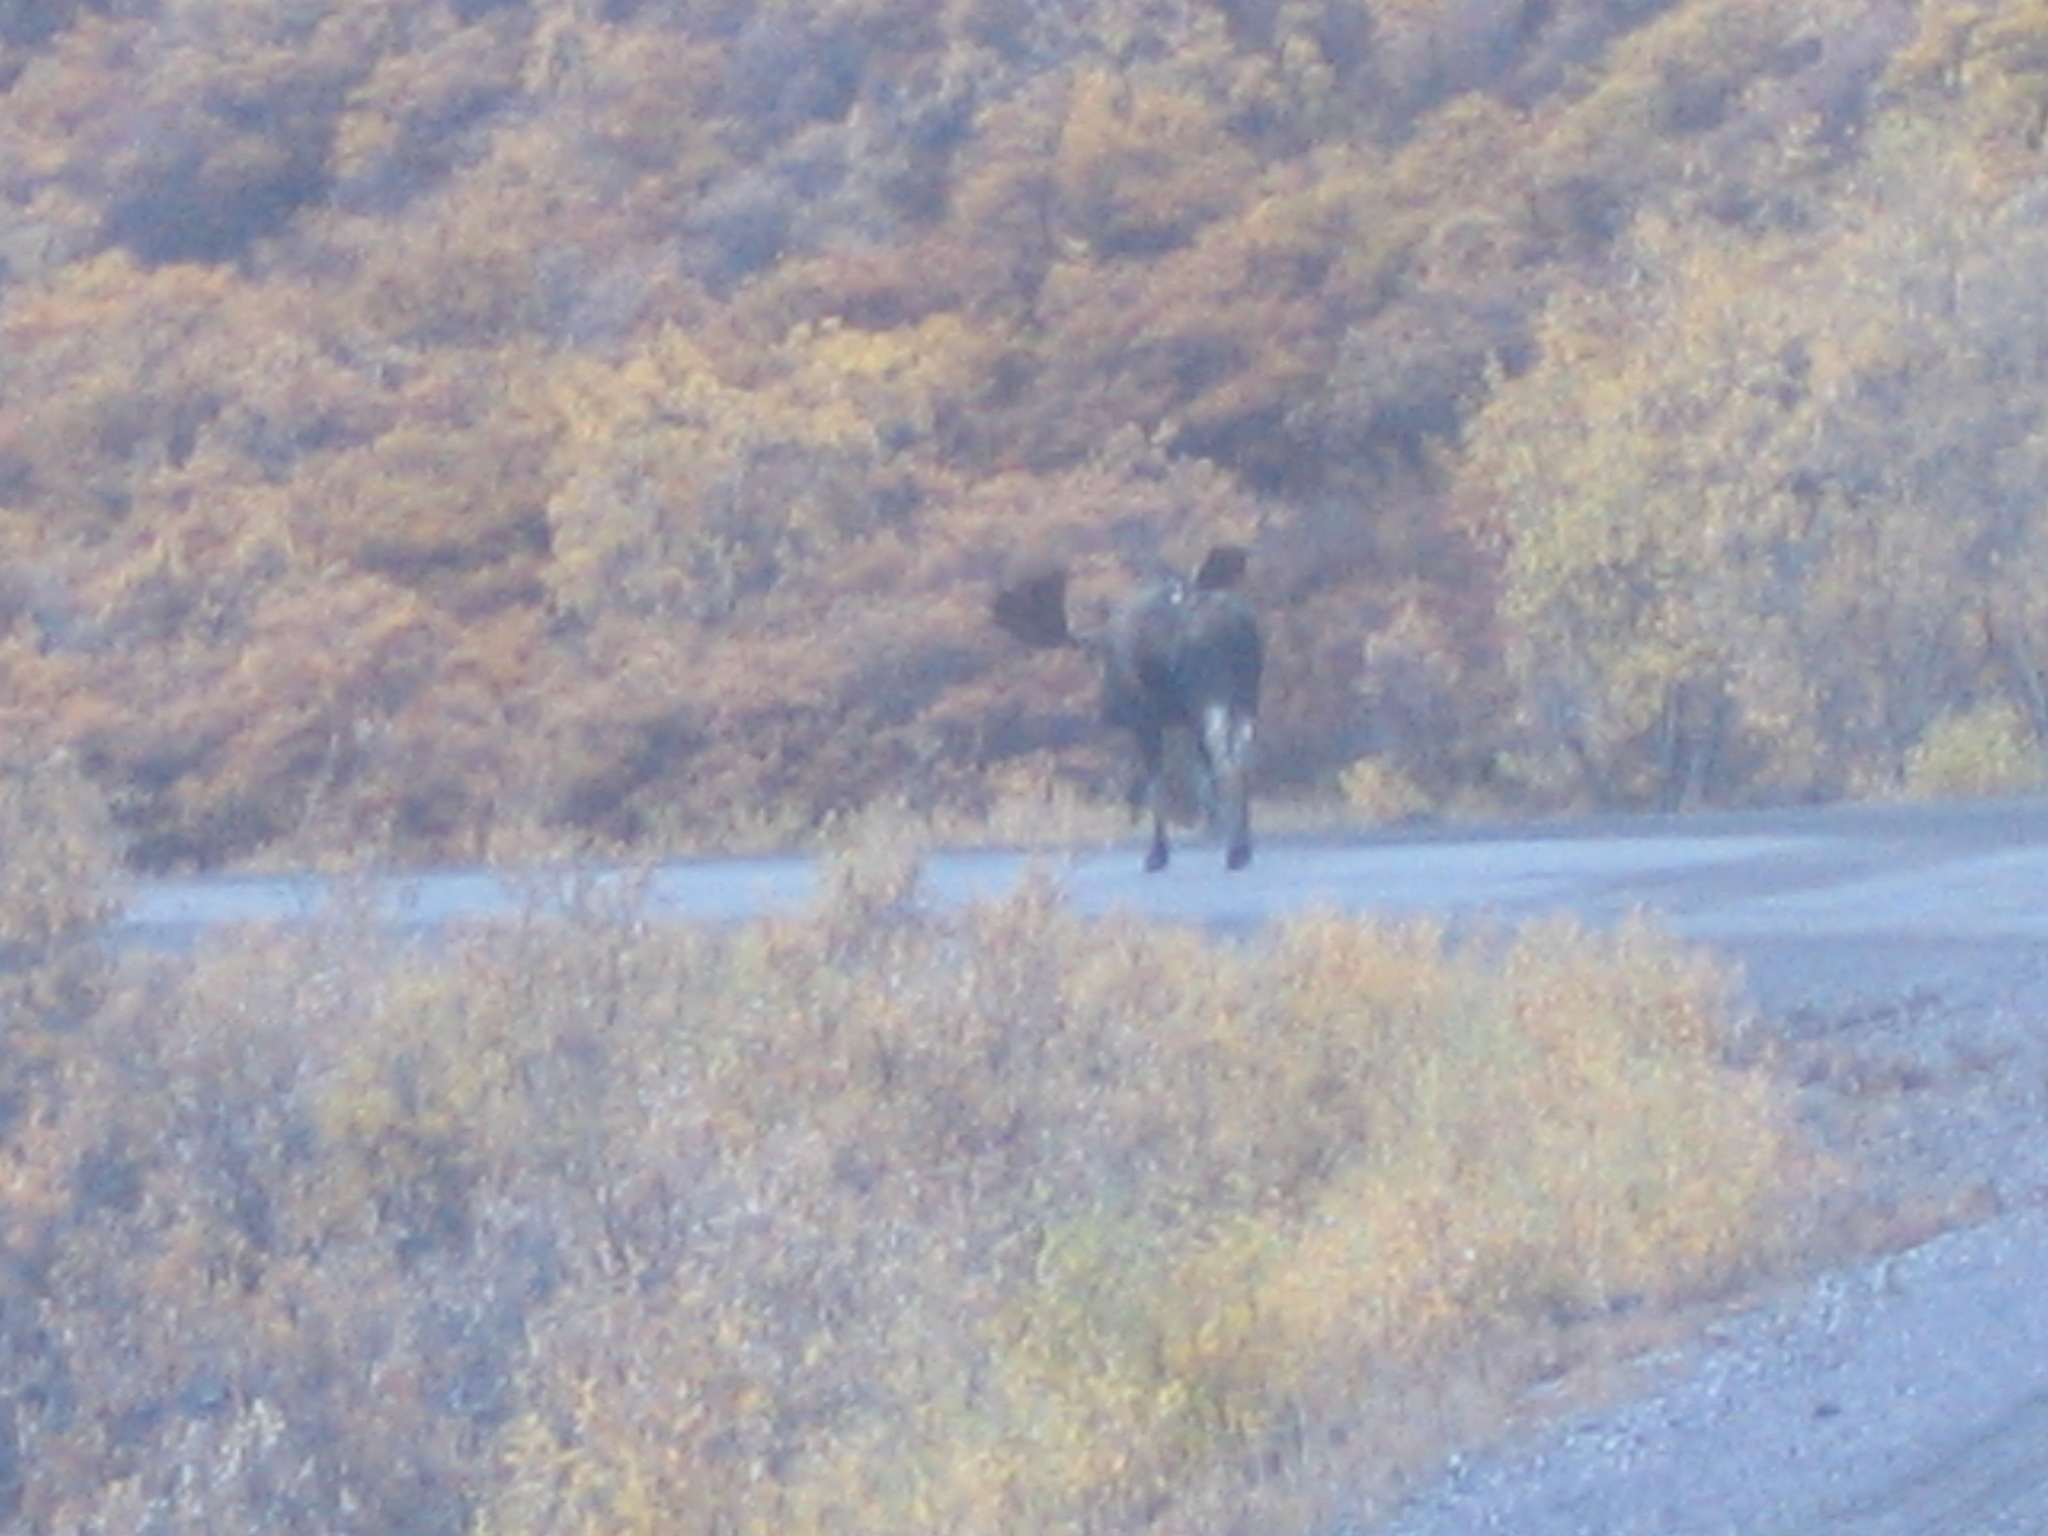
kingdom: Animalia
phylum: Chordata
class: Mammalia
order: Artiodactyla
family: Cervidae
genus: Alces
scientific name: Alces alces
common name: Moose
